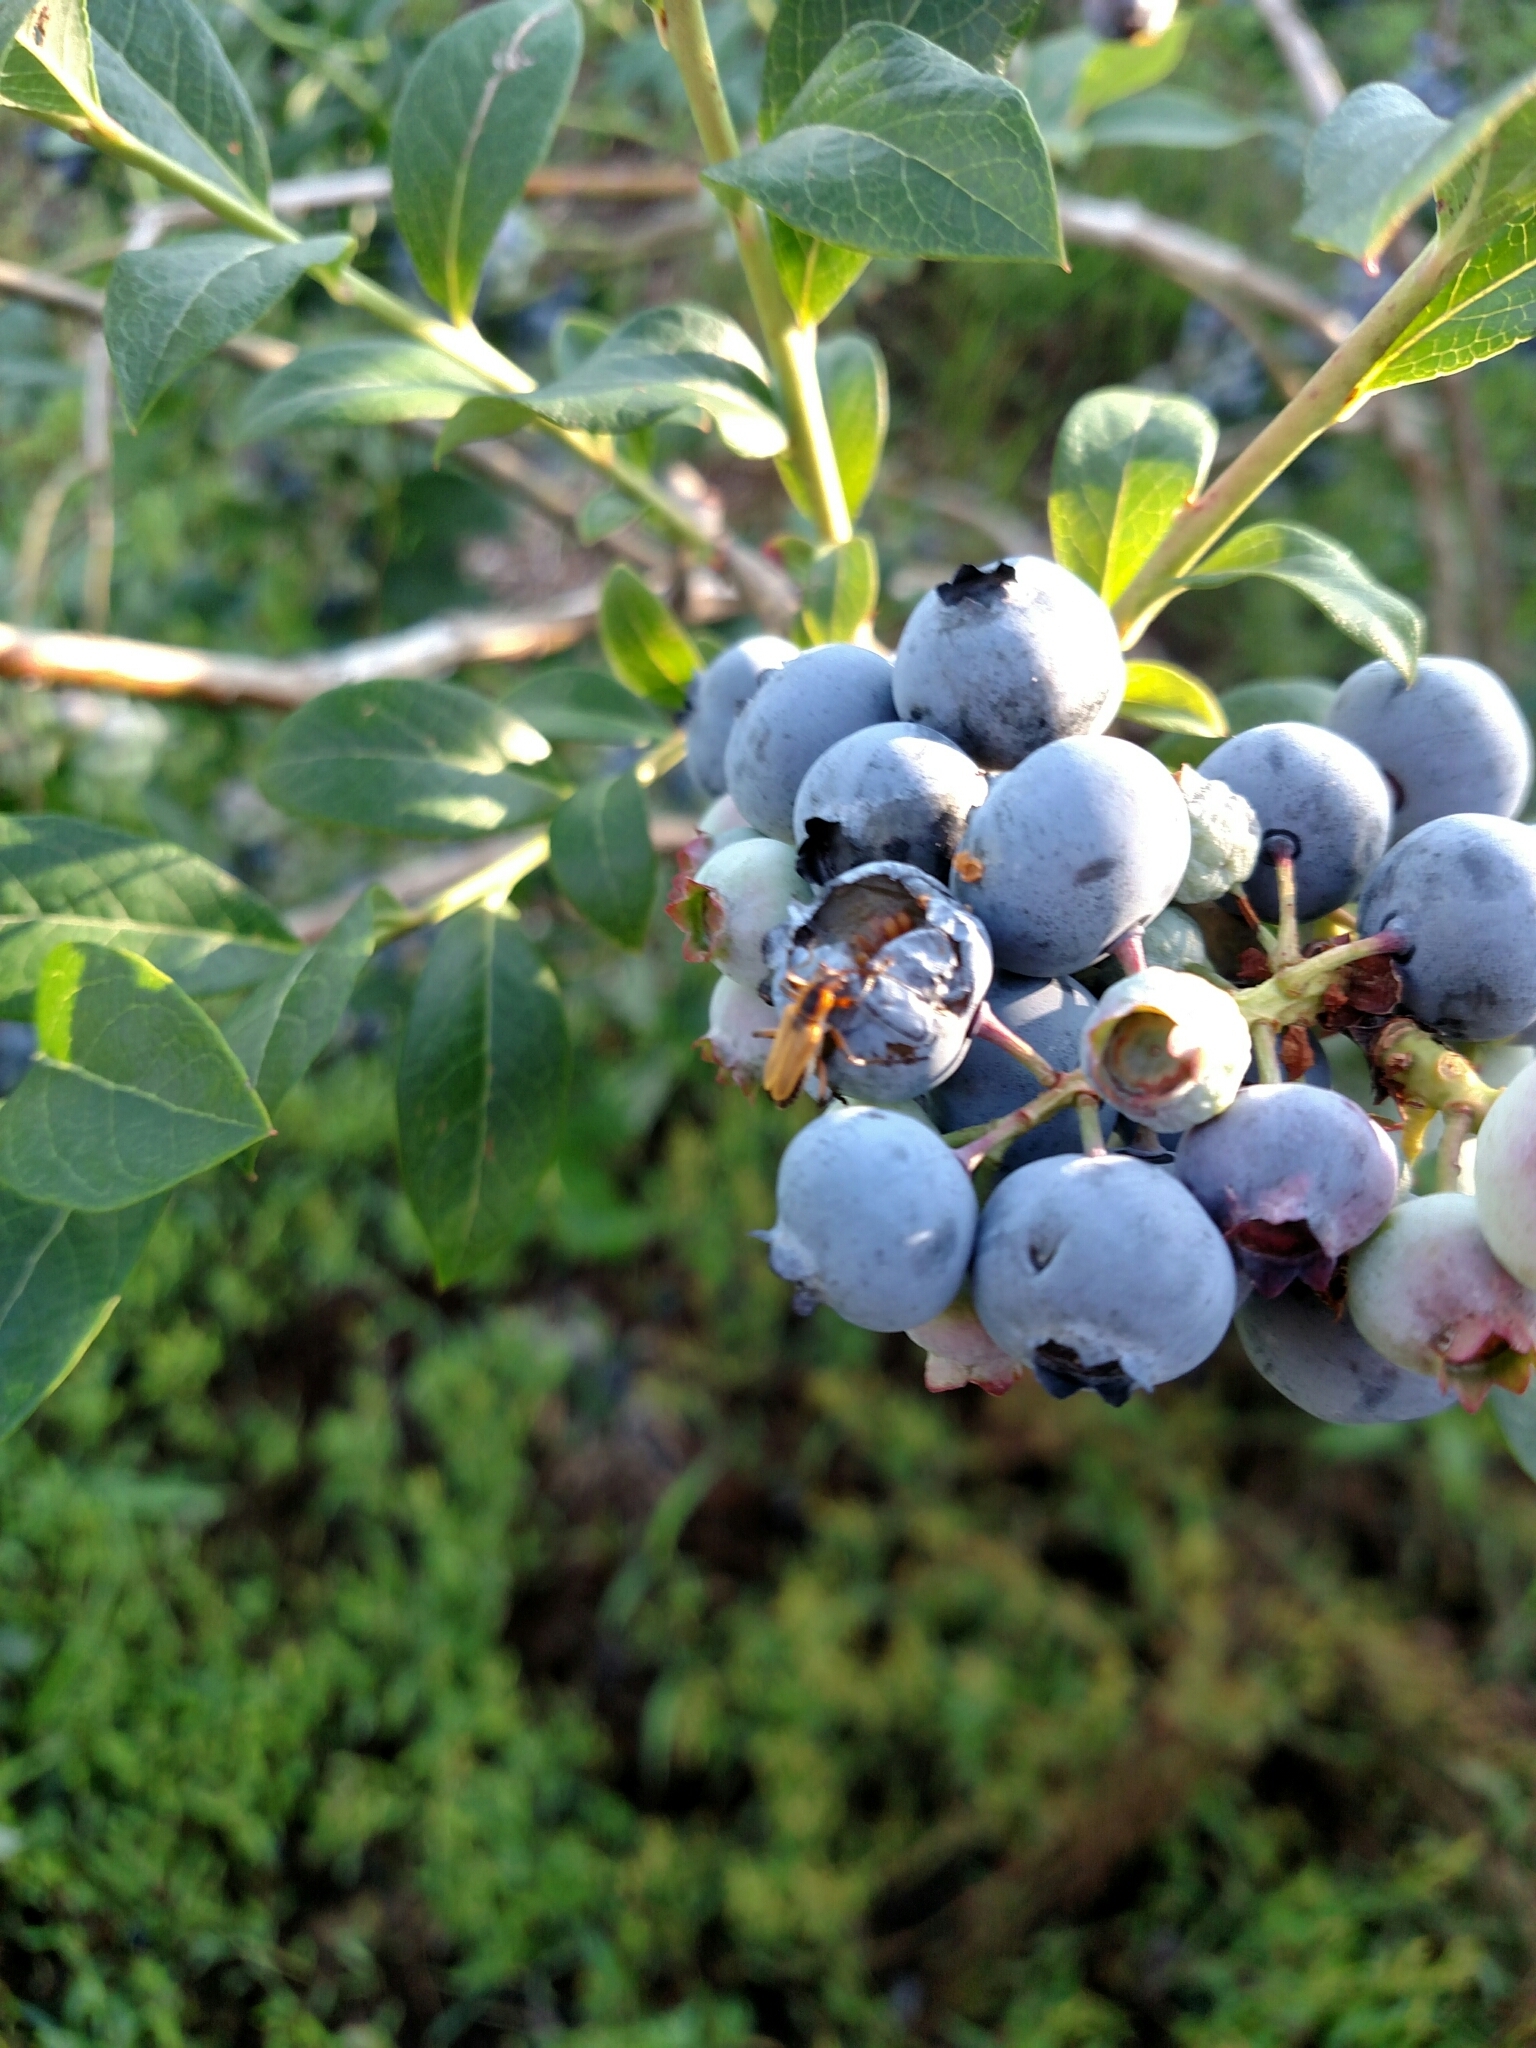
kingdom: Animalia
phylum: Arthropoda
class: Insecta
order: Coleoptera
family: Cantharidae
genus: Chauliognathus
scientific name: Chauliognathus marginatus
